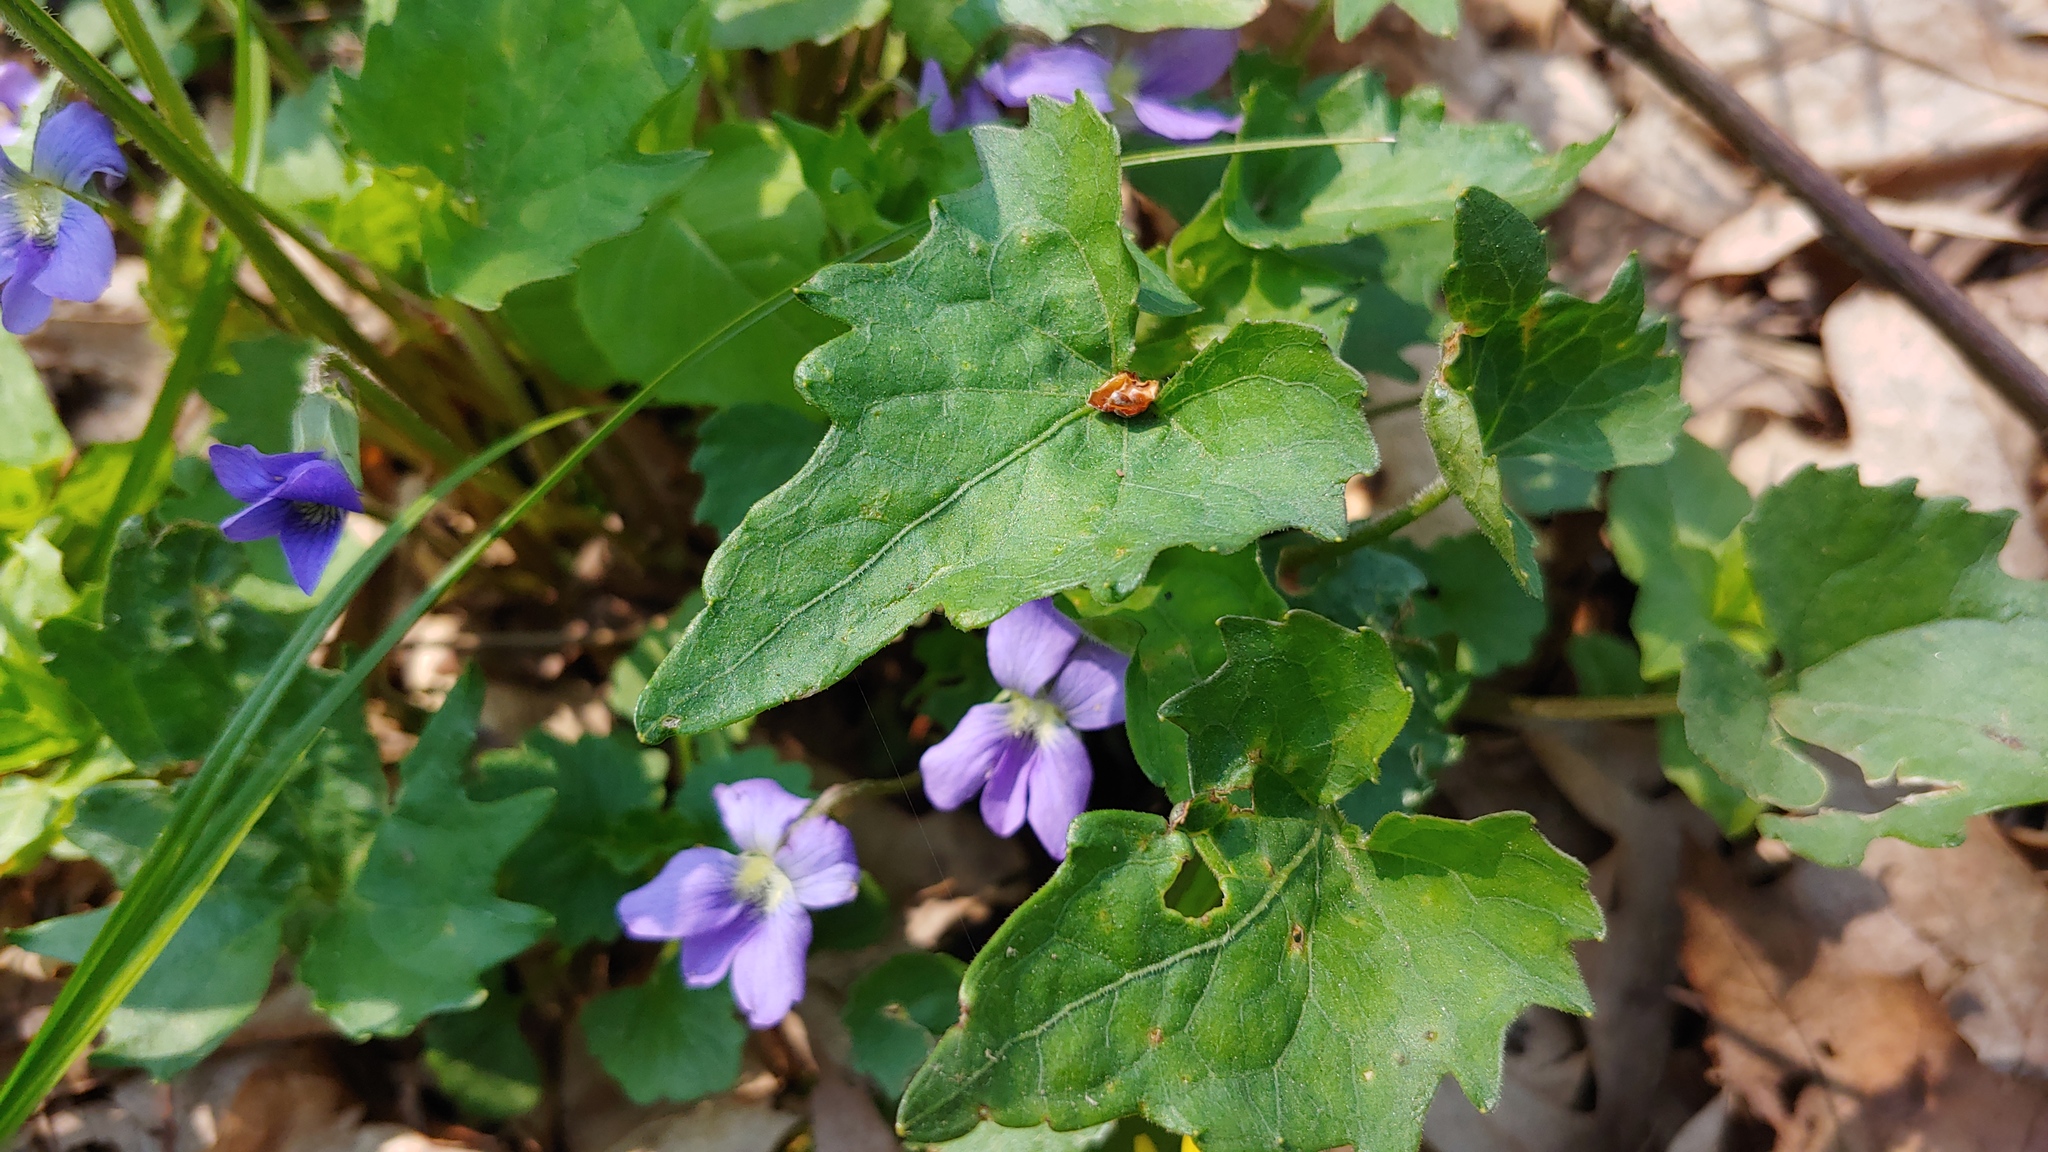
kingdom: Plantae
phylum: Tracheophyta
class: Magnoliopsida
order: Malpighiales
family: Violaceae
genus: Viola
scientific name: Viola subsinuata
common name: Wood violet
